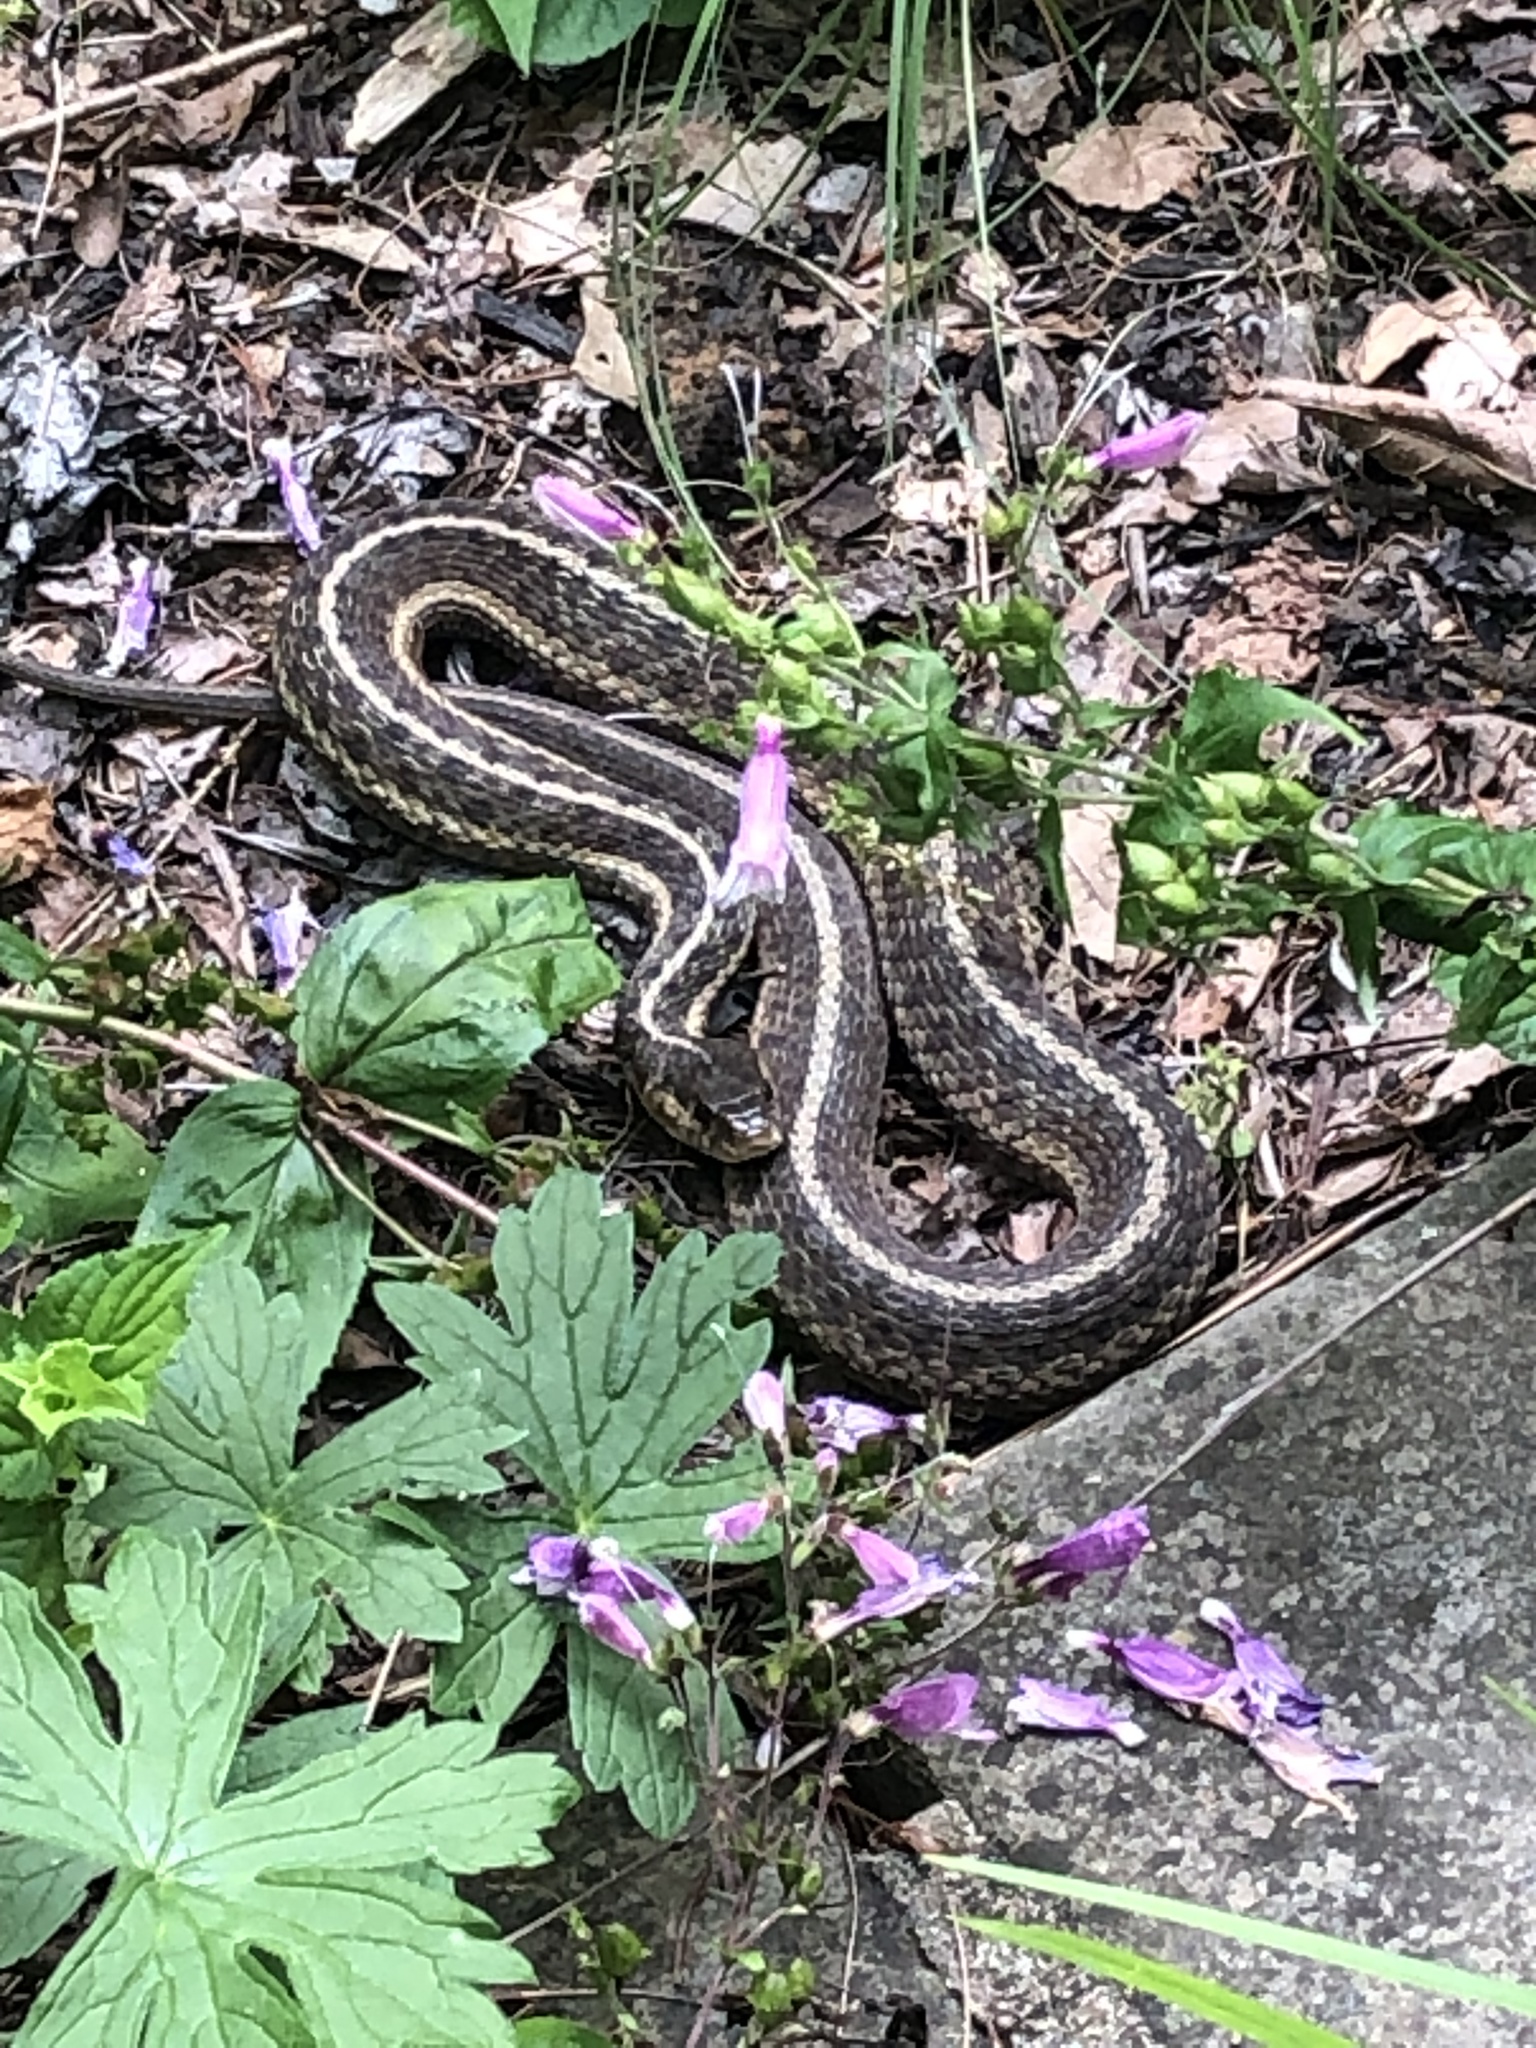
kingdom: Animalia
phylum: Chordata
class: Squamata
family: Colubridae
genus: Thamnophis
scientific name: Thamnophis sirtalis
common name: Common garter snake
